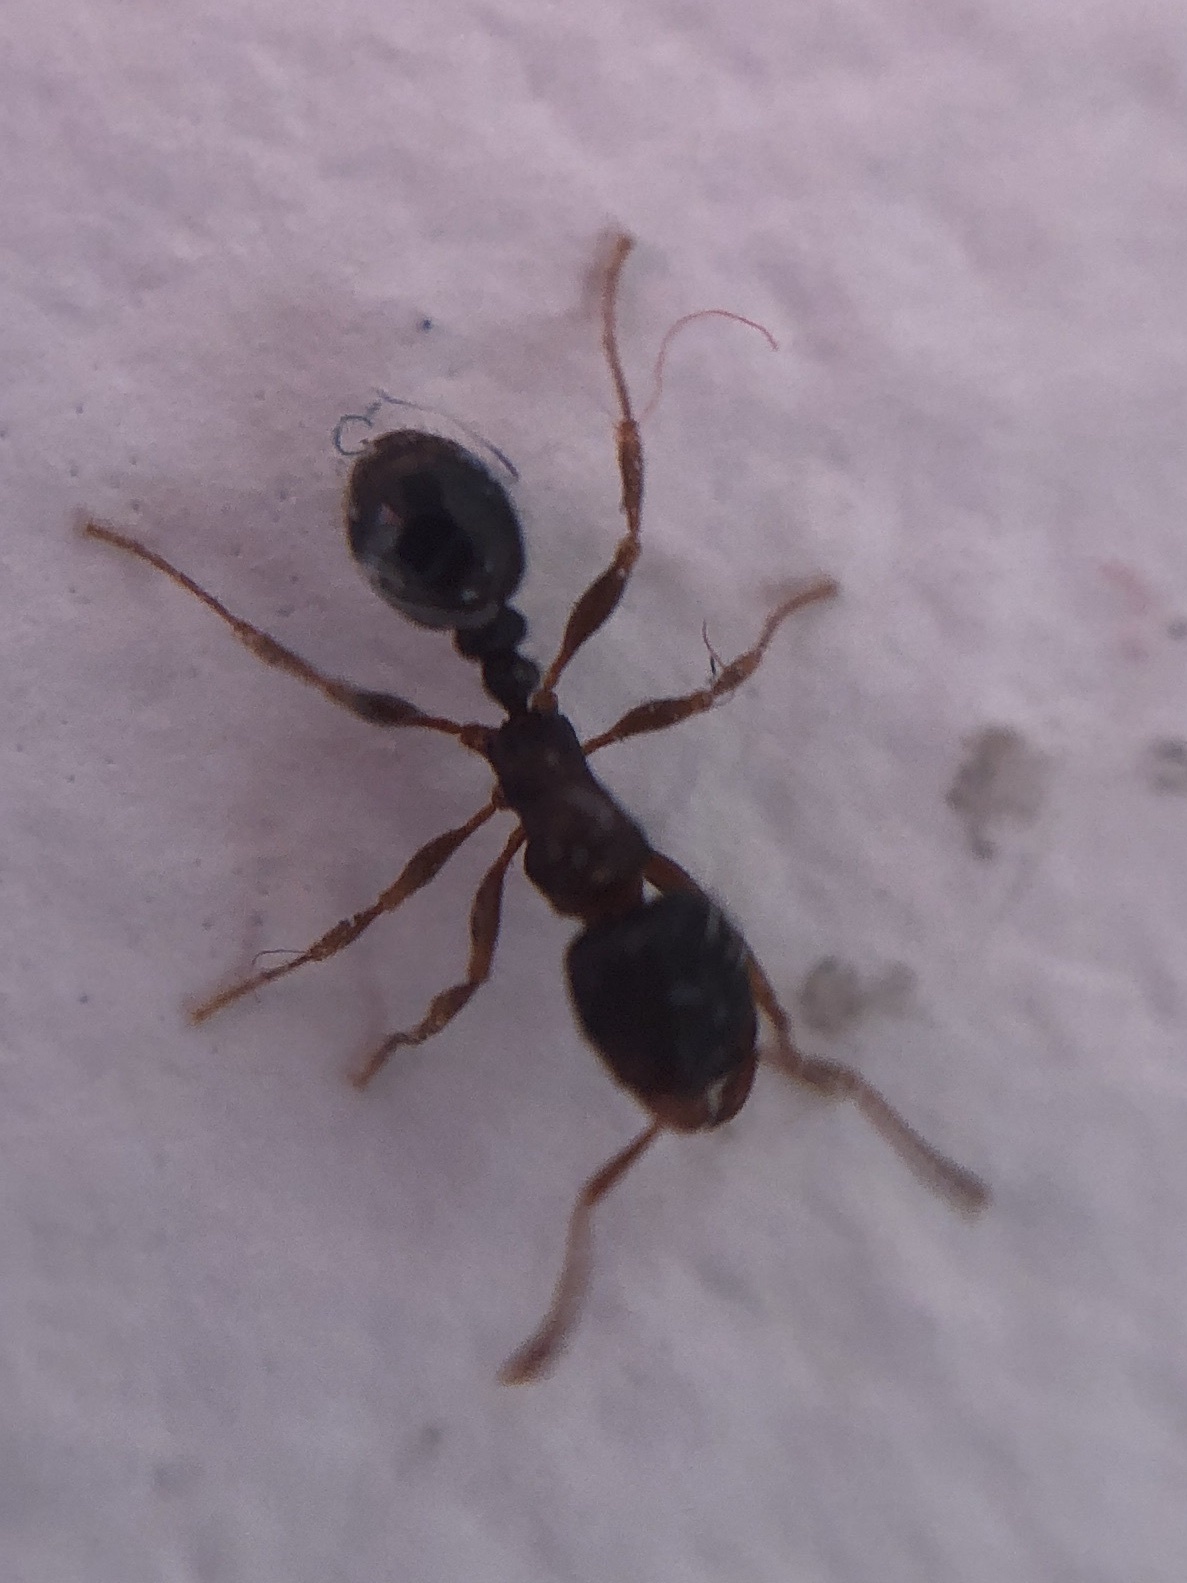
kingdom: Animalia
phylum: Arthropoda
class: Insecta
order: Hymenoptera
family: Formicidae
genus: Tetramorium
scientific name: Tetramorium immigrans
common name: Pavement ant
